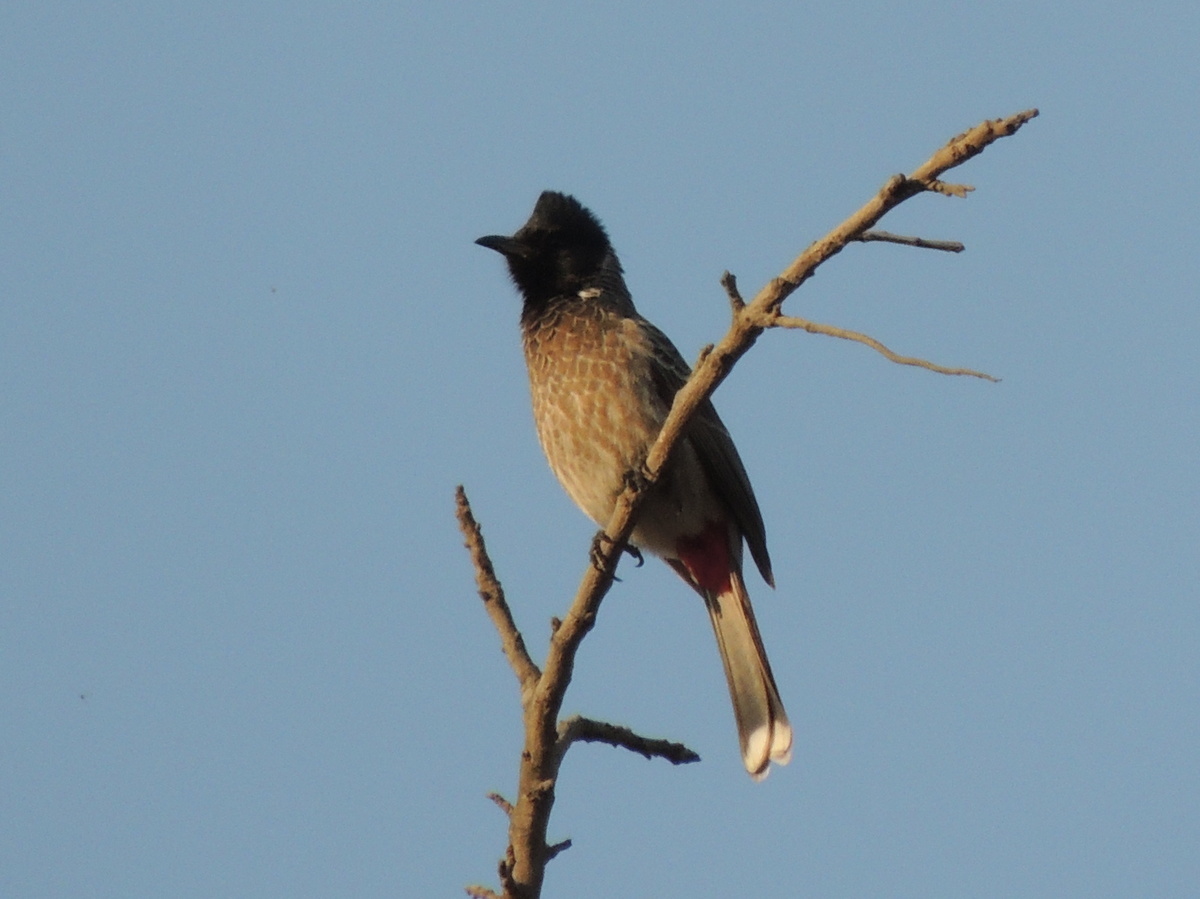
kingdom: Animalia
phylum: Chordata
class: Aves
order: Passeriformes
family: Pycnonotidae
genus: Pycnonotus
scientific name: Pycnonotus cafer
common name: Red-vented bulbul
